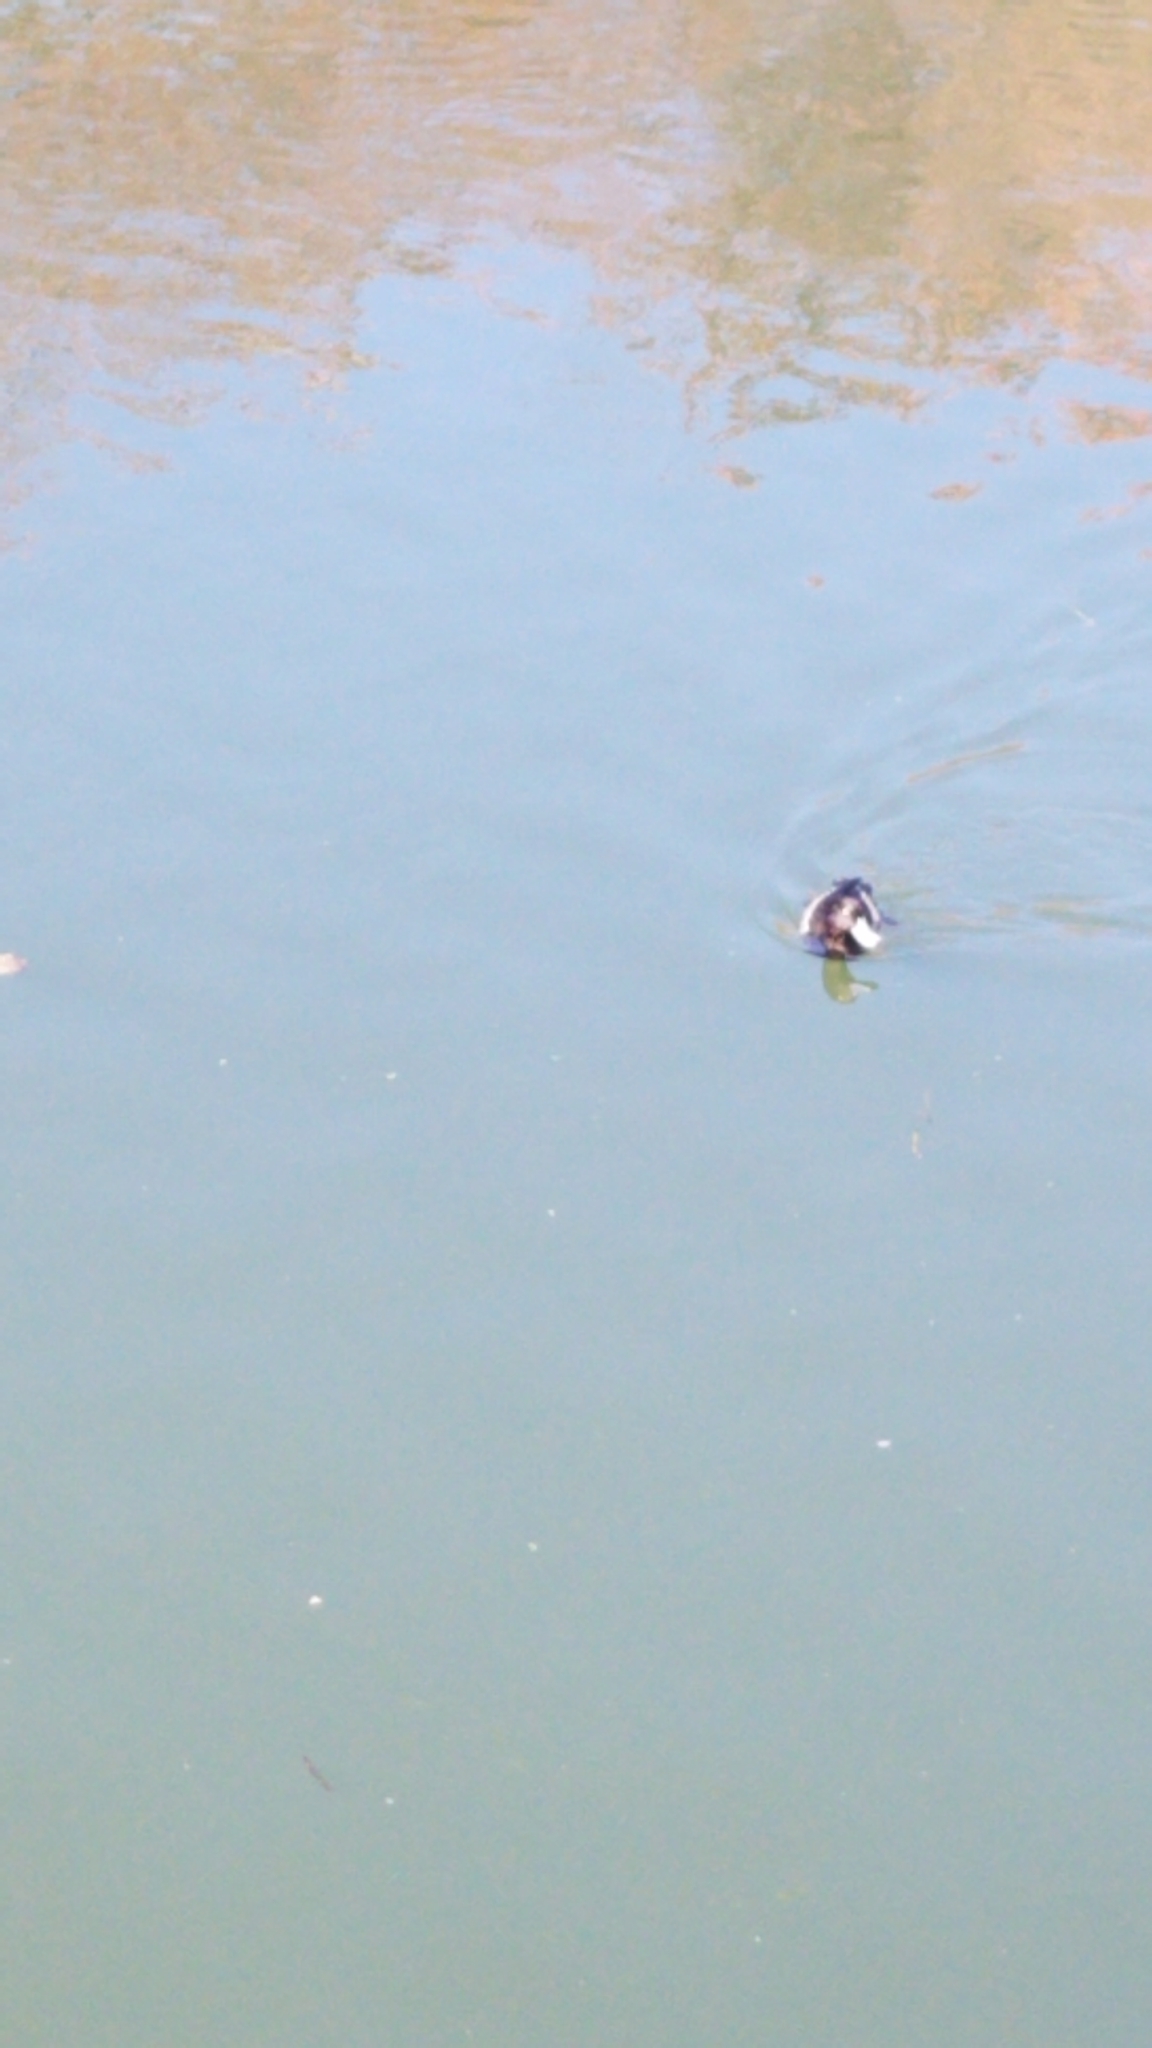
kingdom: Animalia
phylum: Chordata
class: Aves
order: Anseriformes
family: Anatidae
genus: Aythya
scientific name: Aythya fuligula
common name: Tufted duck
